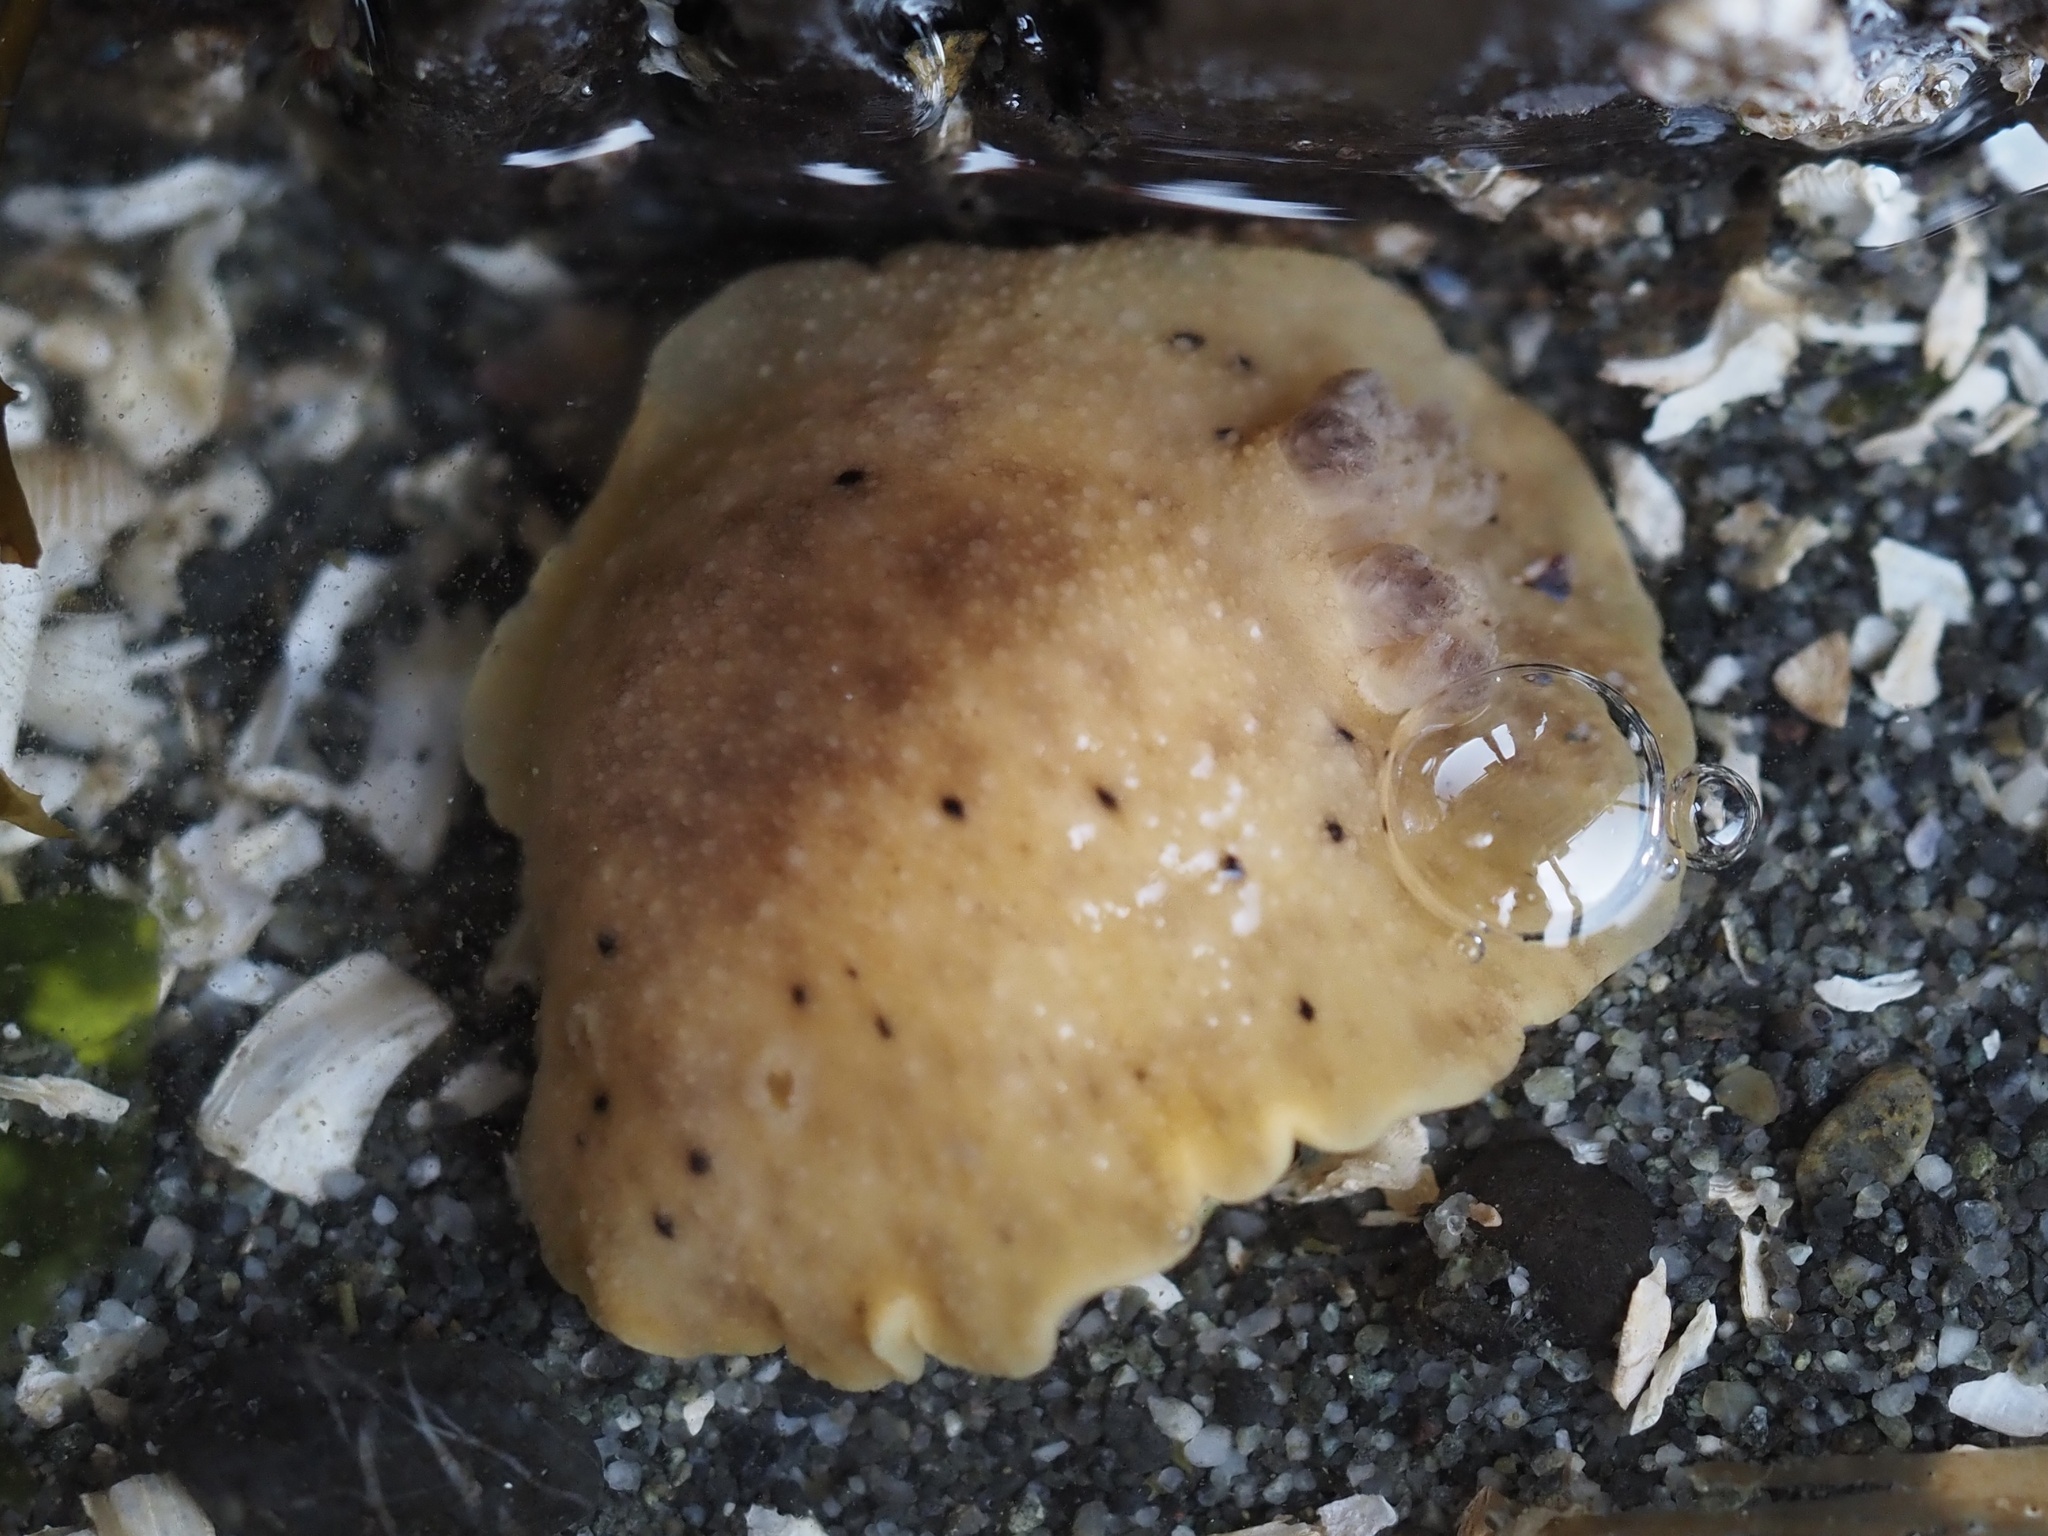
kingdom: Animalia
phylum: Mollusca
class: Gastropoda
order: Nudibranchia
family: Discodorididae
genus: Geitodoris
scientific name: Geitodoris heathi
